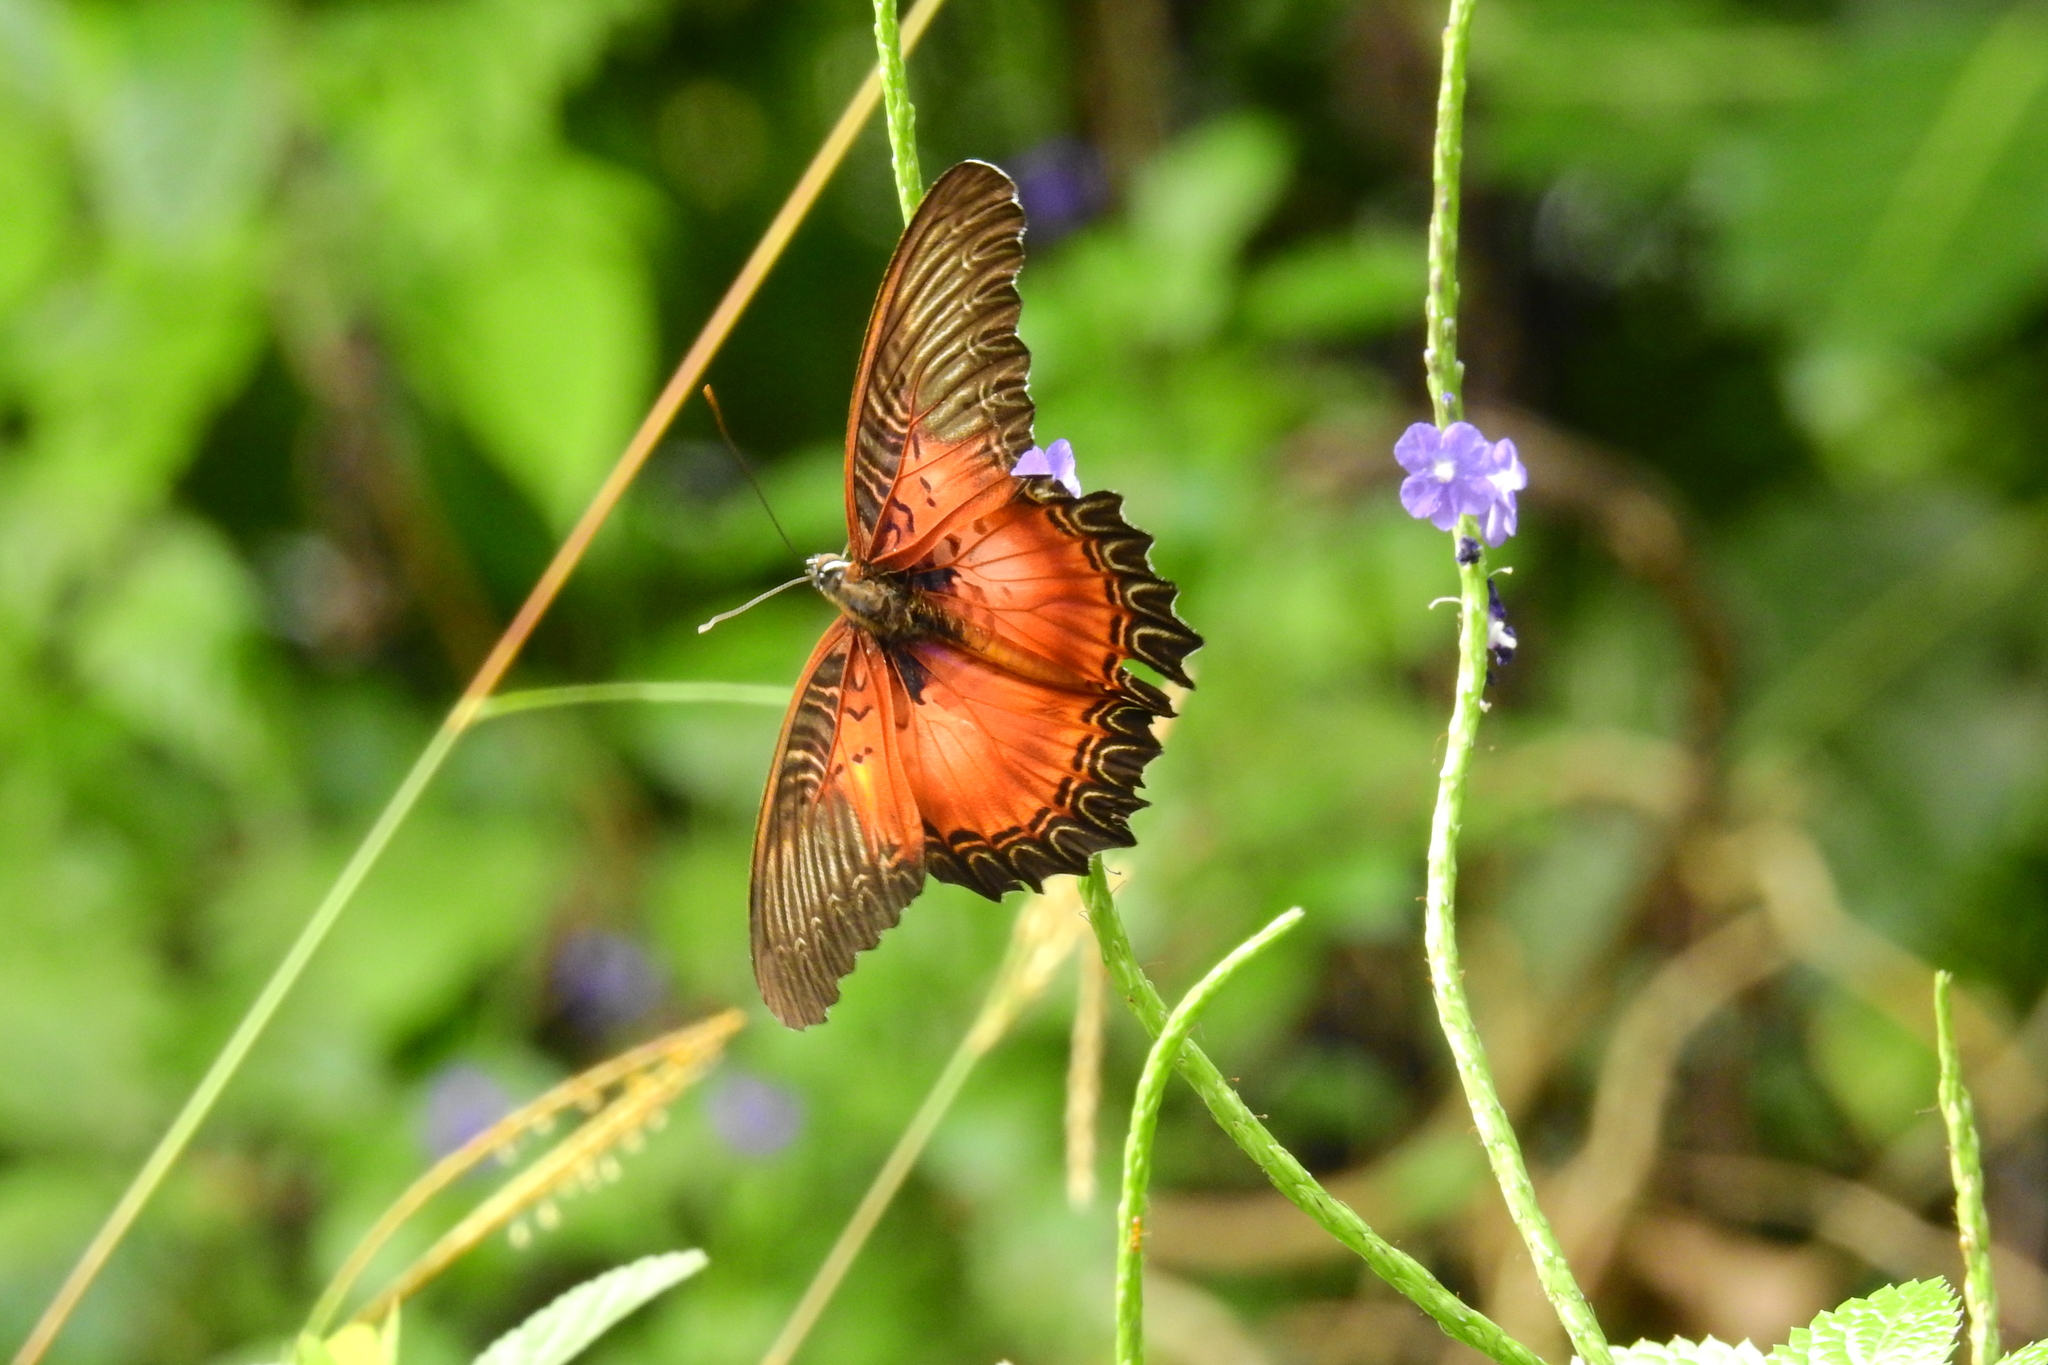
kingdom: Animalia
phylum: Arthropoda
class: Insecta
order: Lepidoptera
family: Nymphalidae
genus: Cethosia
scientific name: Cethosia myrina
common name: Violet lacewing
